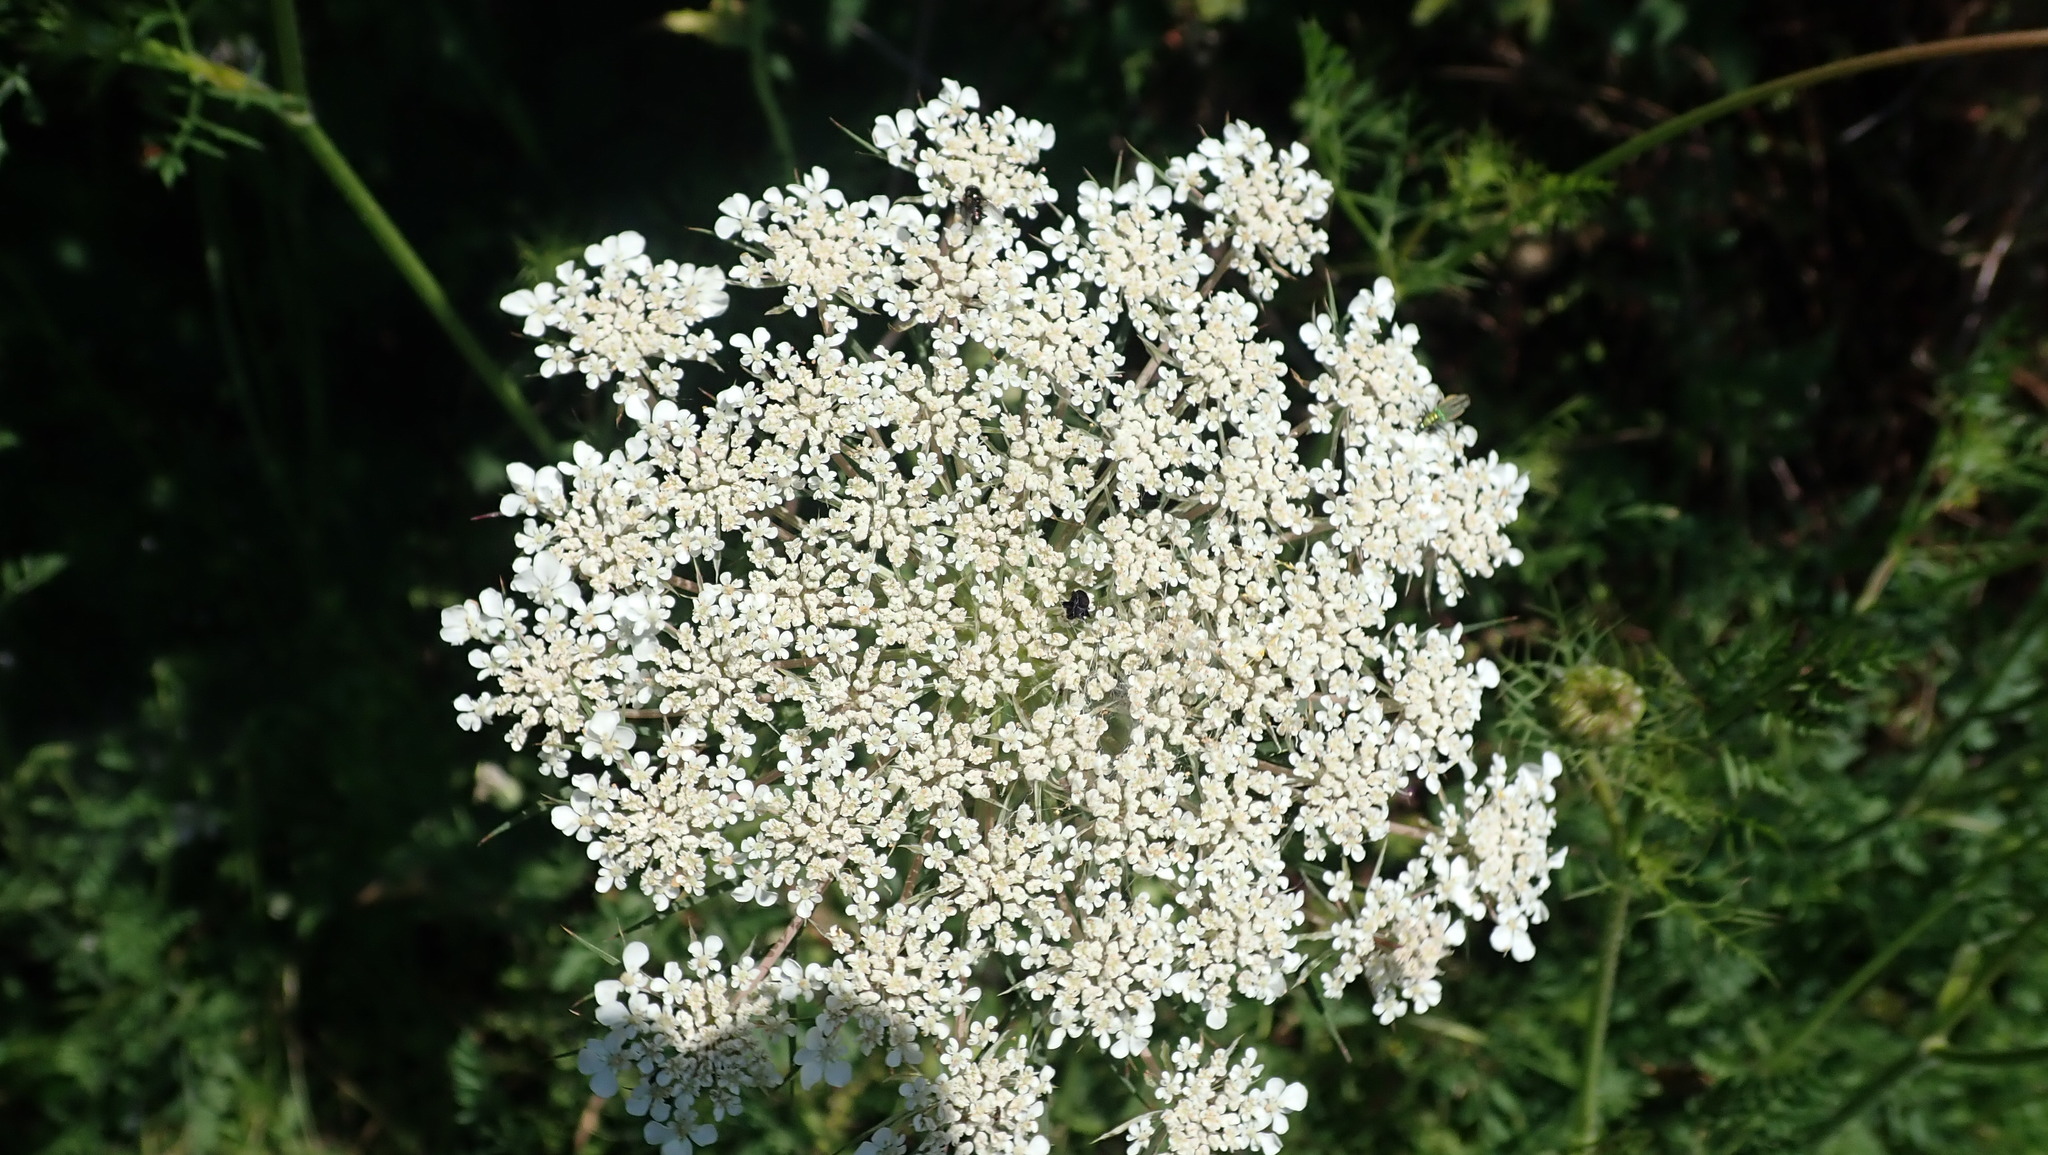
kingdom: Plantae
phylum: Tracheophyta
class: Magnoliopsida
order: Apiales
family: Apiaceae
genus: Daucus
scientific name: Daucus carota
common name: Wild carrot
